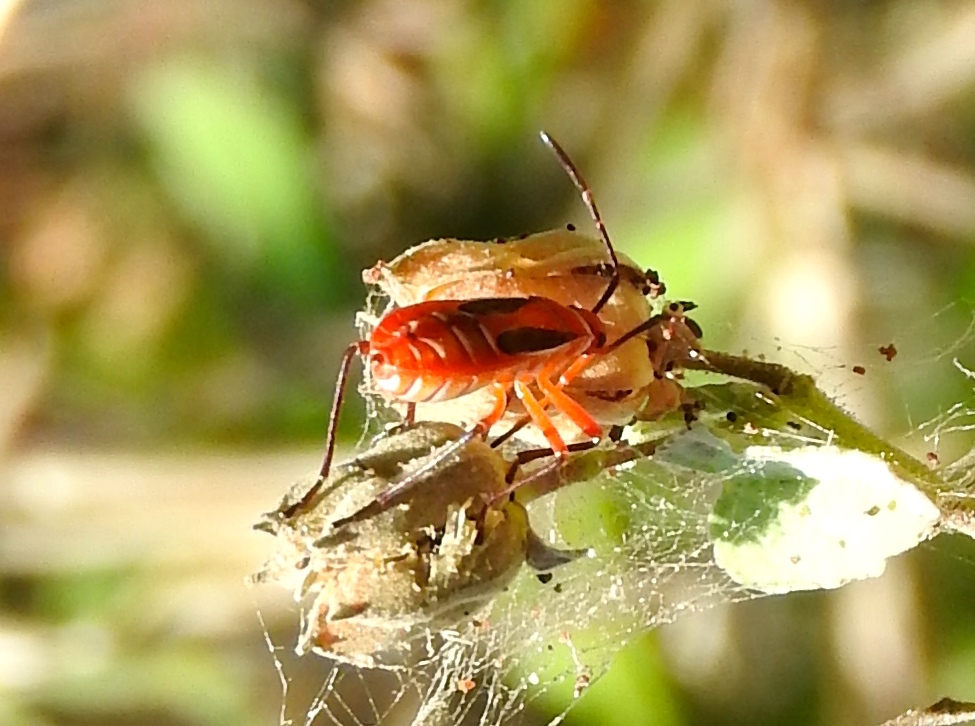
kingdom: Animalia
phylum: Arthropoda
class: Insecta
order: Hemiptera
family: Pyrrhocoridae
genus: Dysdercus
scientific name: Dysdercus obscuratus
